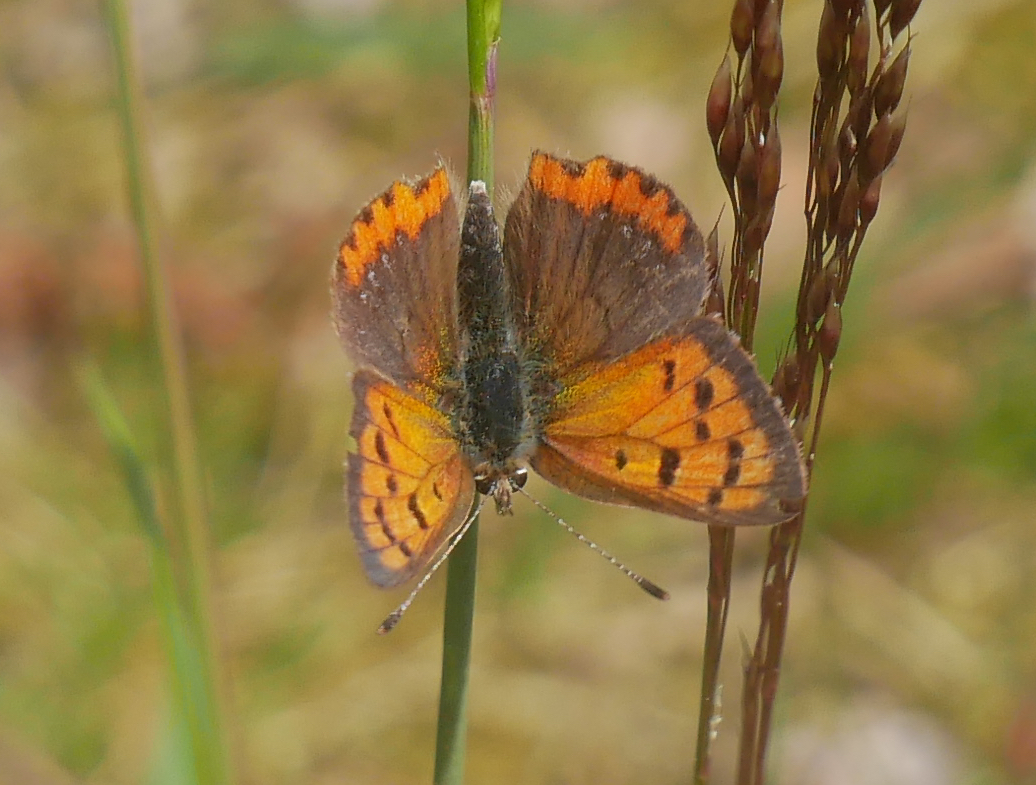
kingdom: Animalia
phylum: Arthropoda
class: Insecta
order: Lepidoptera
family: Lycaenidae
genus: Lycaena
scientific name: Lycaena phlaeas
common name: Small copper
